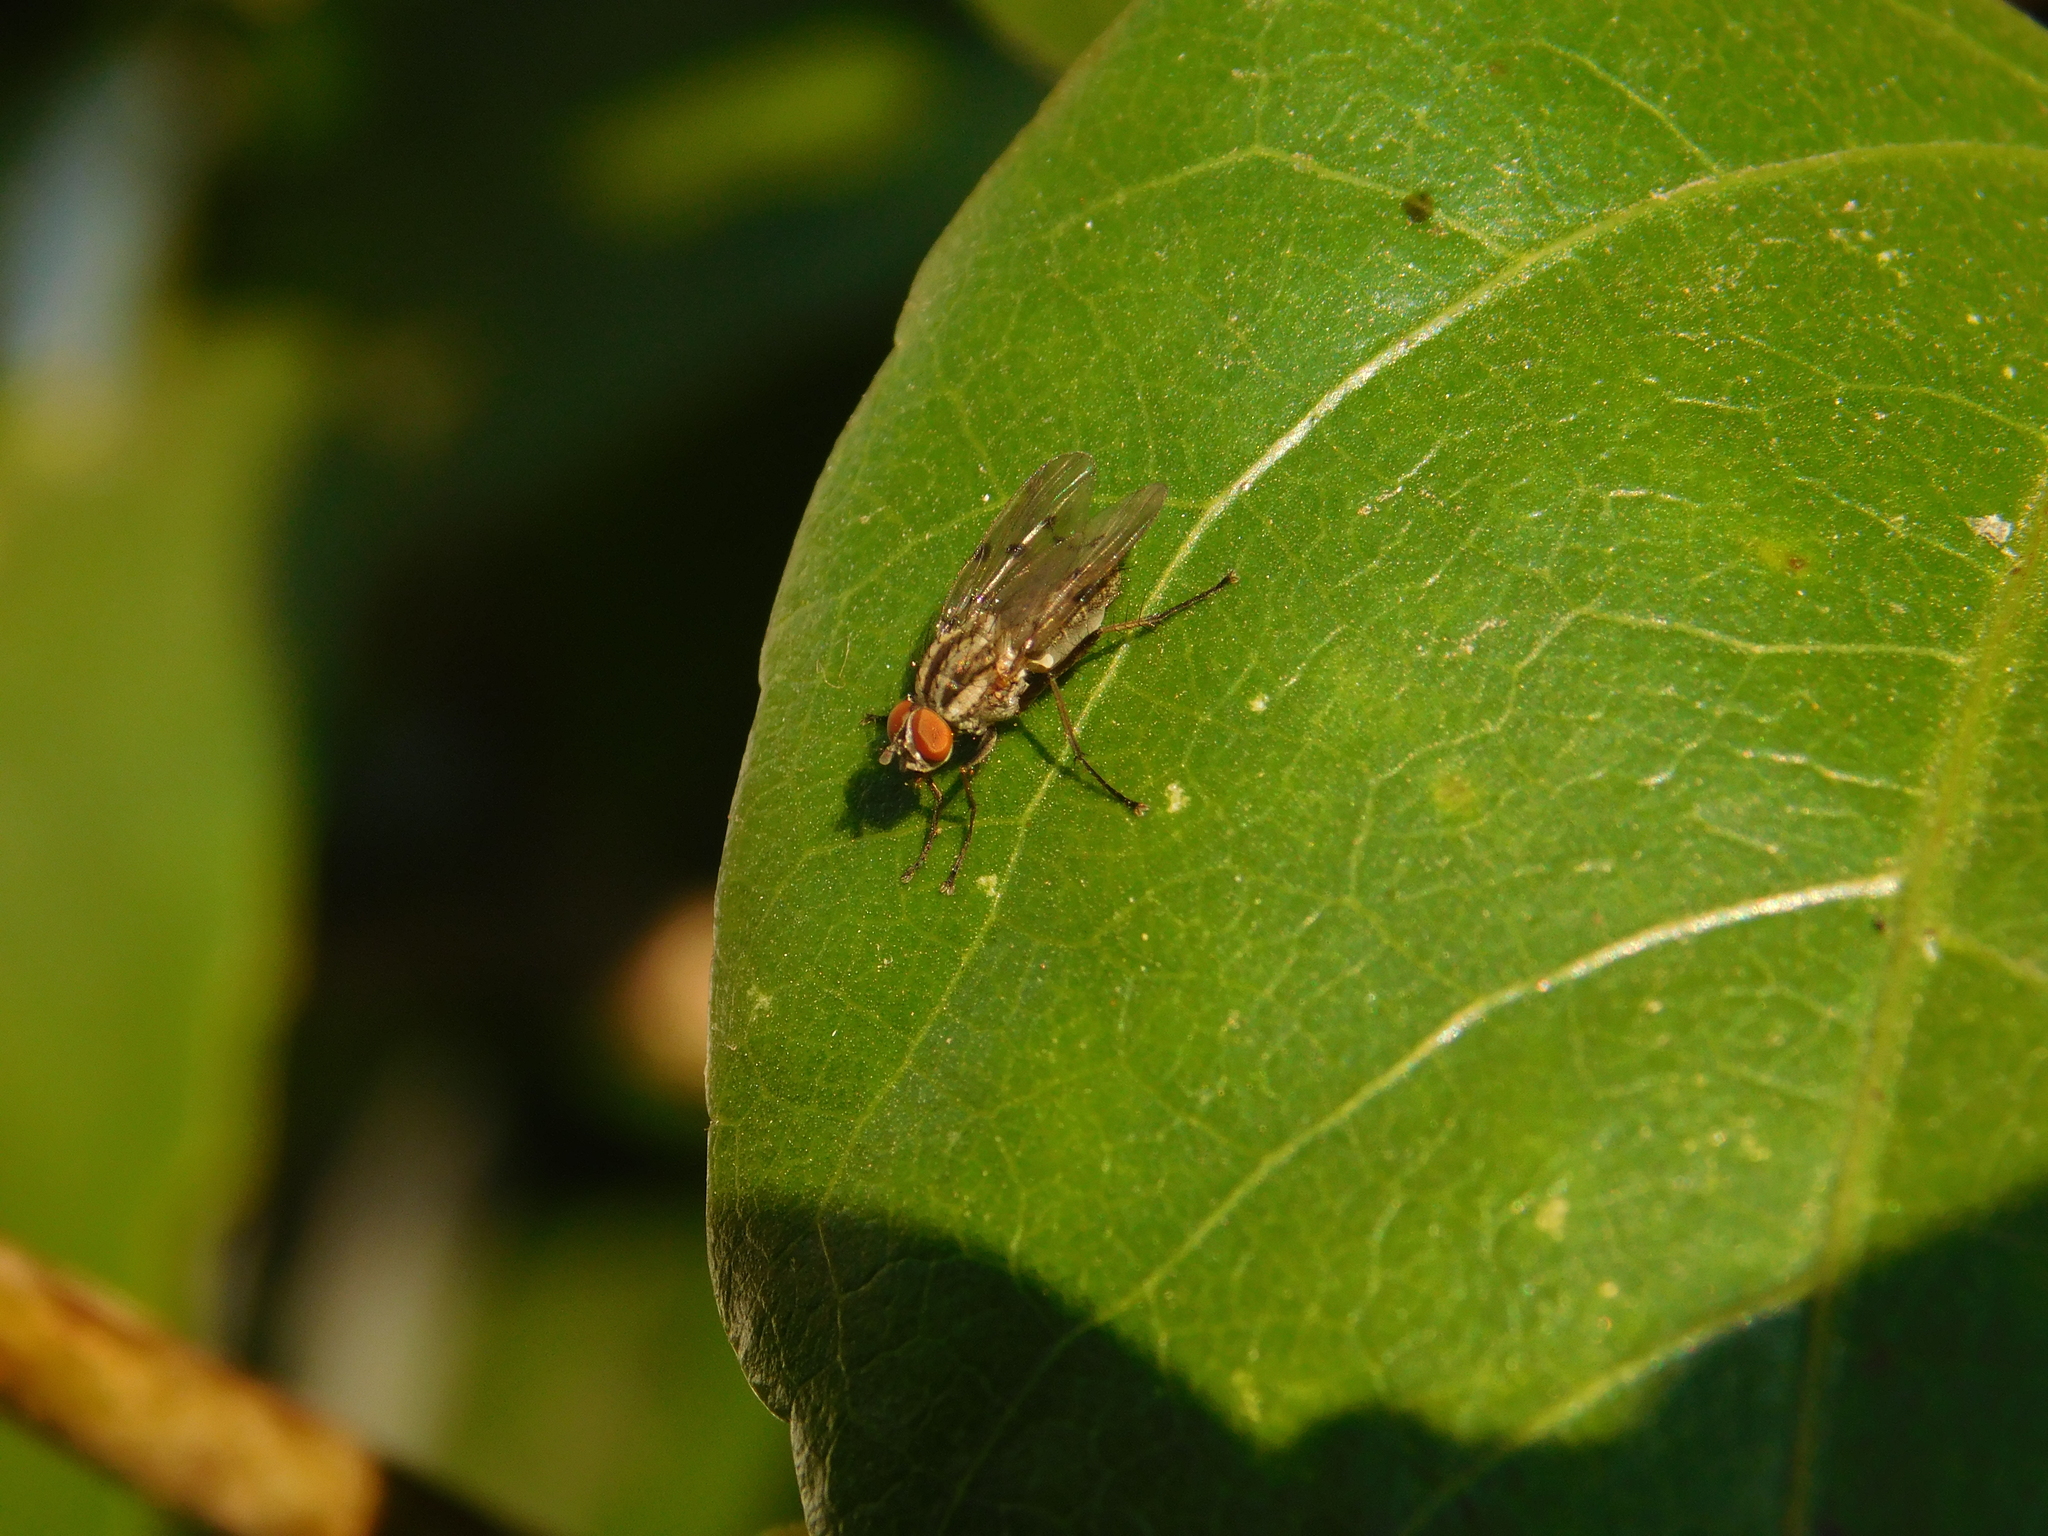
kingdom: Animalia
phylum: Arthropoda
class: Insecta
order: Diptera
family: Anthomyiidae
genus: Anthomyia
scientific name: Anthomyia punctipennis
